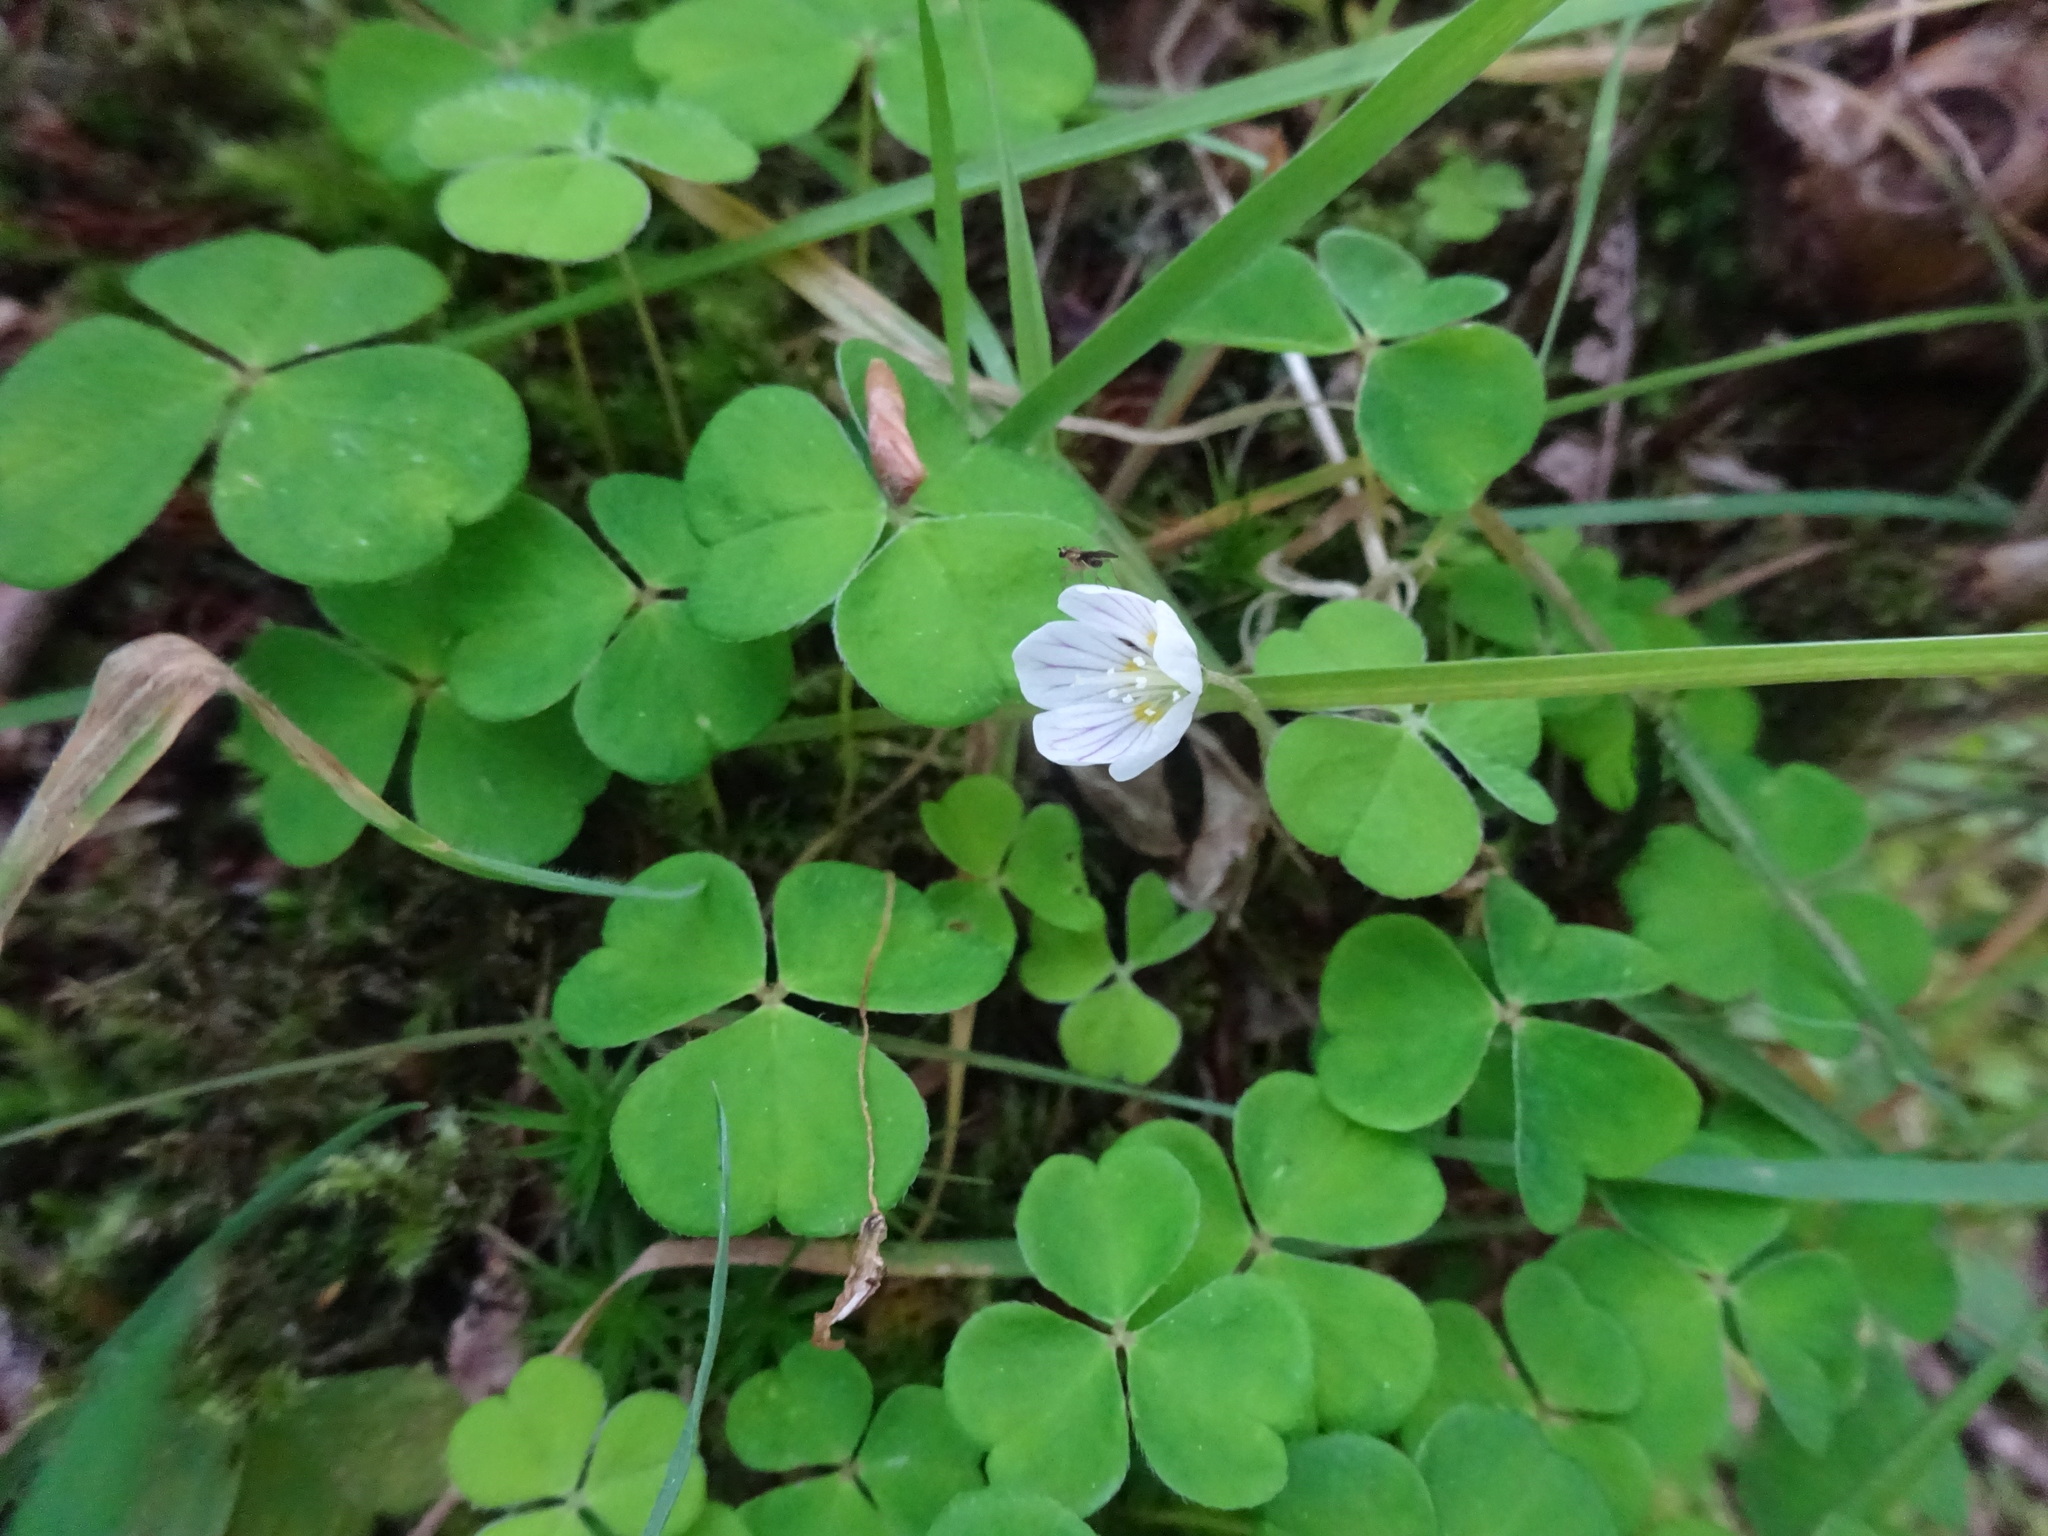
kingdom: Plantae
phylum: Tracheophyta
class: Magnoliopsida
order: Oxalidales
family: Oxalidaceae
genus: Oxalis
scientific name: Oxalis acetosella
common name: Wood-sorrel
